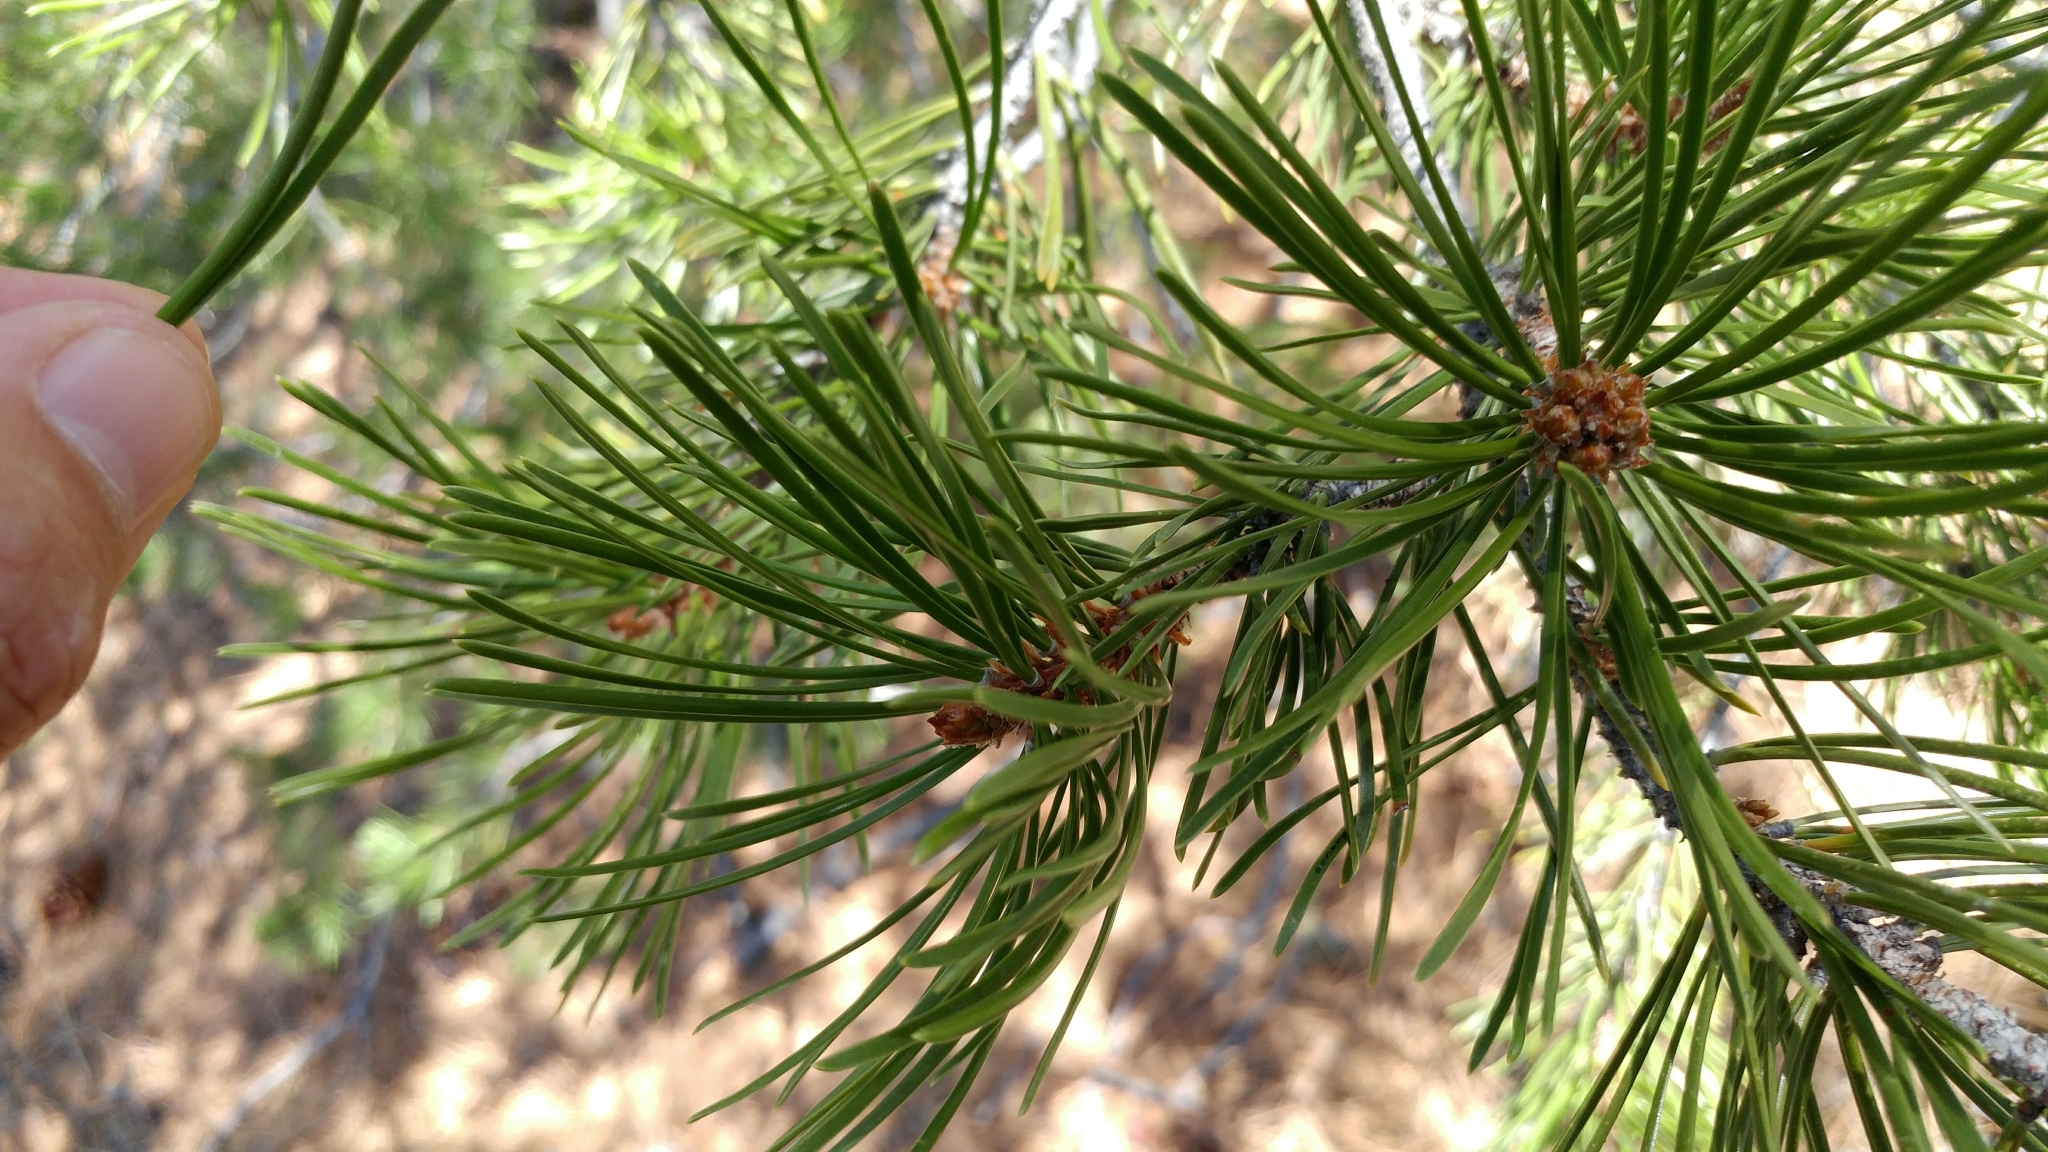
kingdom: Plantae
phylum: Tracheophyta
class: Pinopsida
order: Pinales
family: Pinaceae
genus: Pinus
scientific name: Pinus contorta
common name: Lodgepole pine
